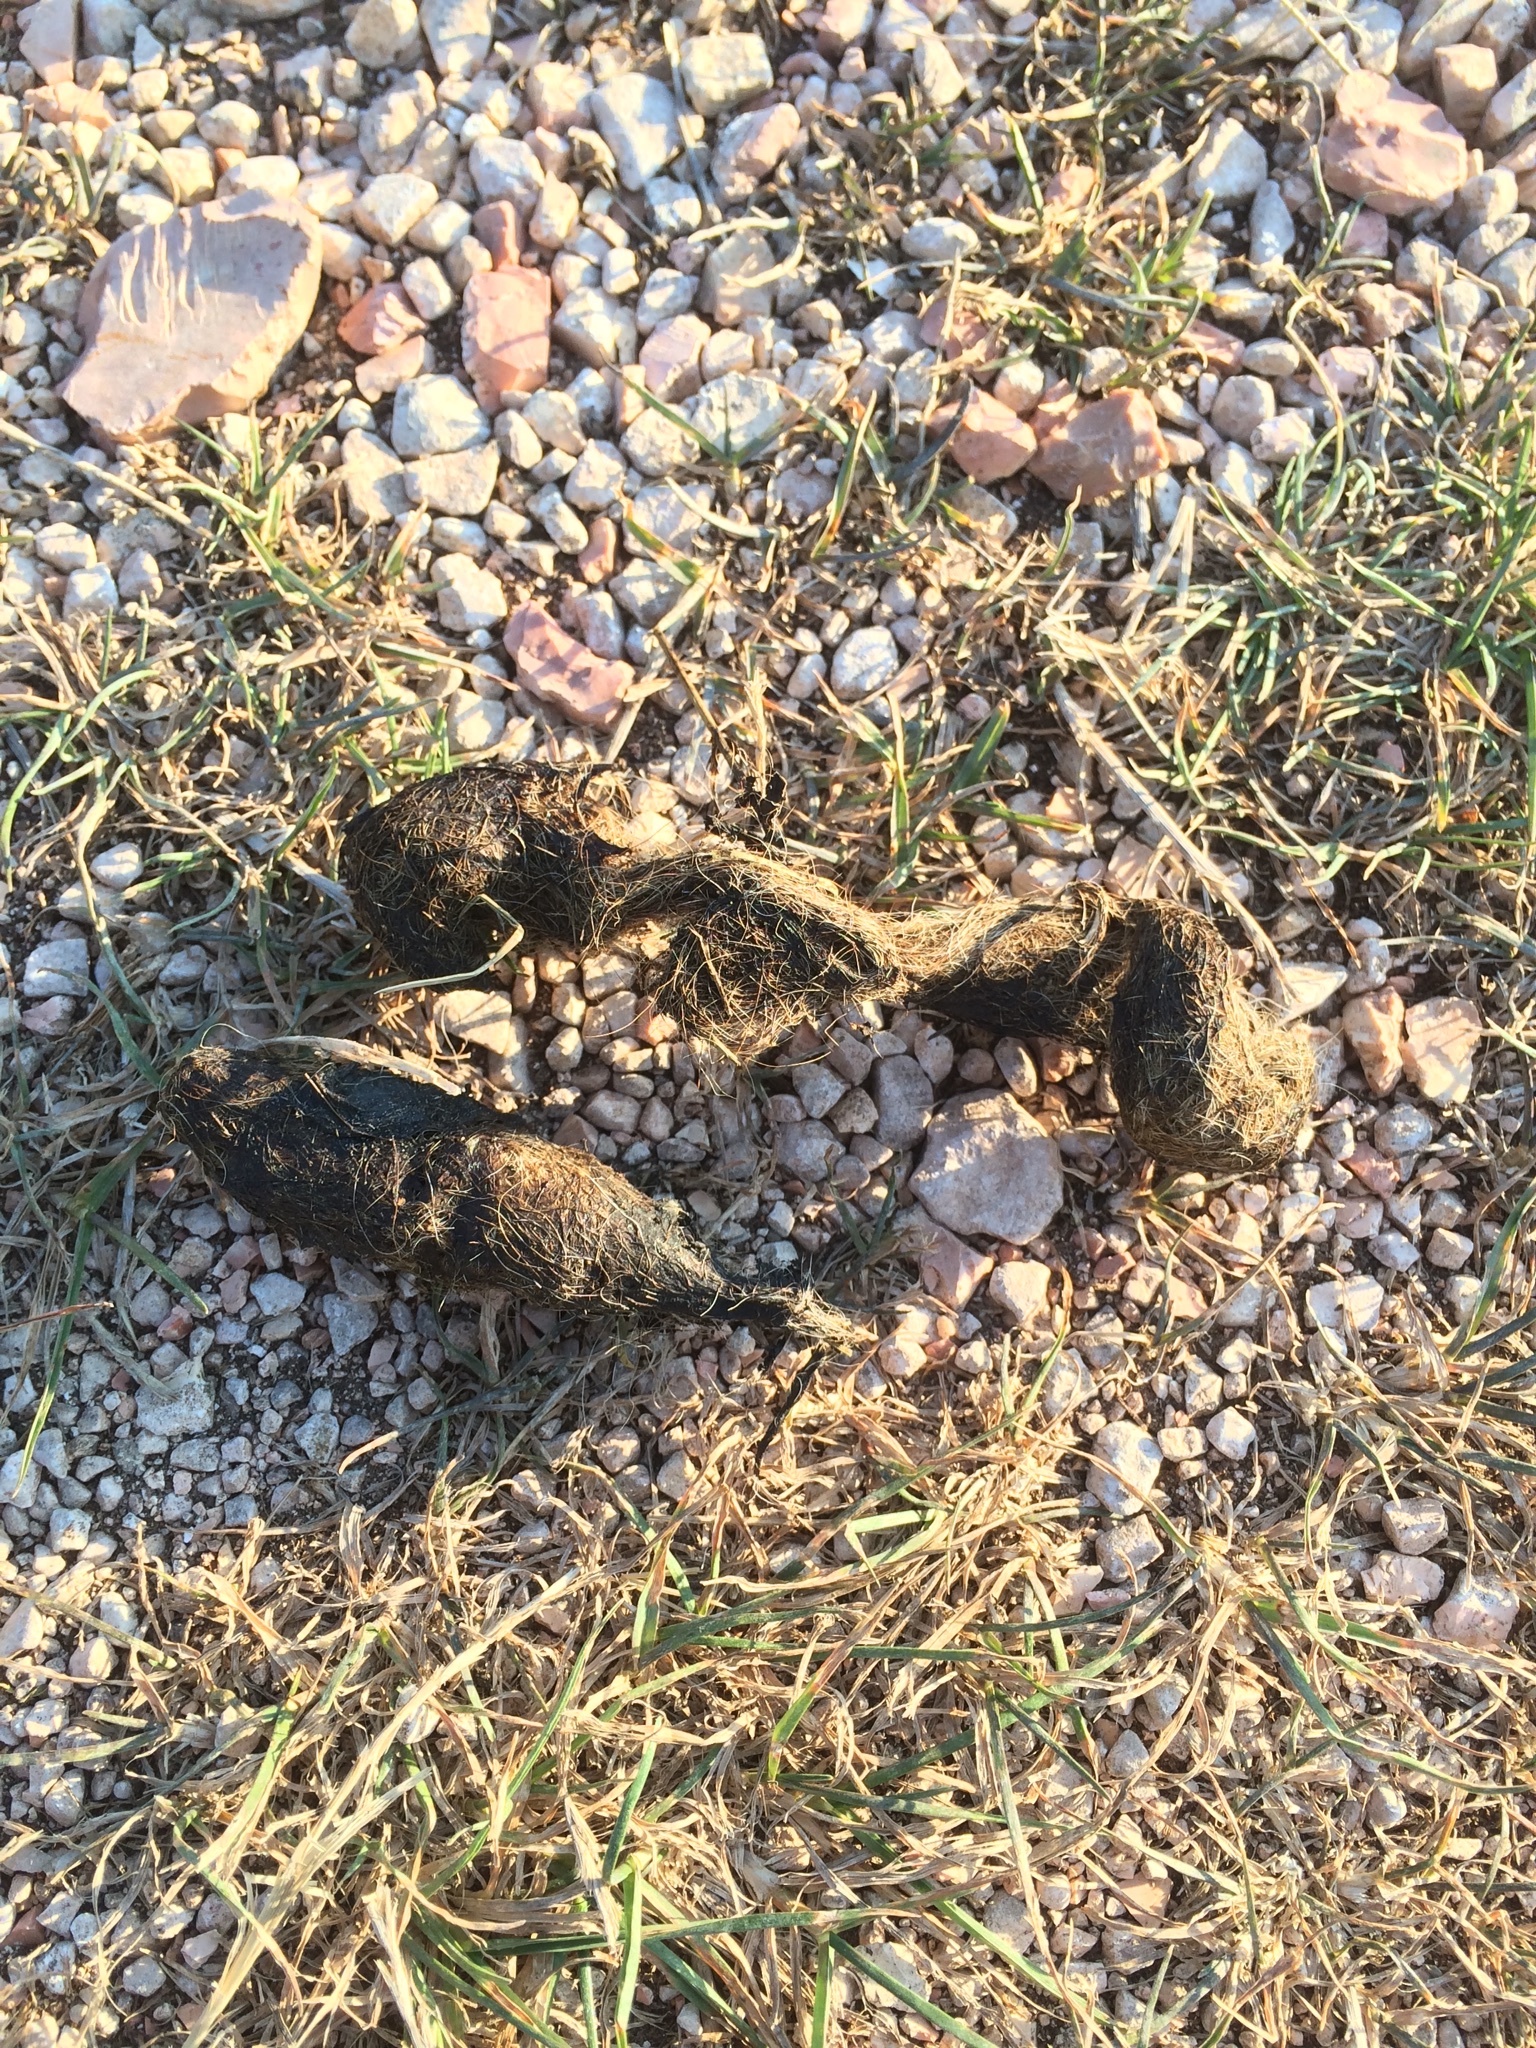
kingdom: Animalia
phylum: Chordata
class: Mammalia
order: Carnivora
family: Canidae
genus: Canis
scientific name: Canis lupus
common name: Gray wolf
